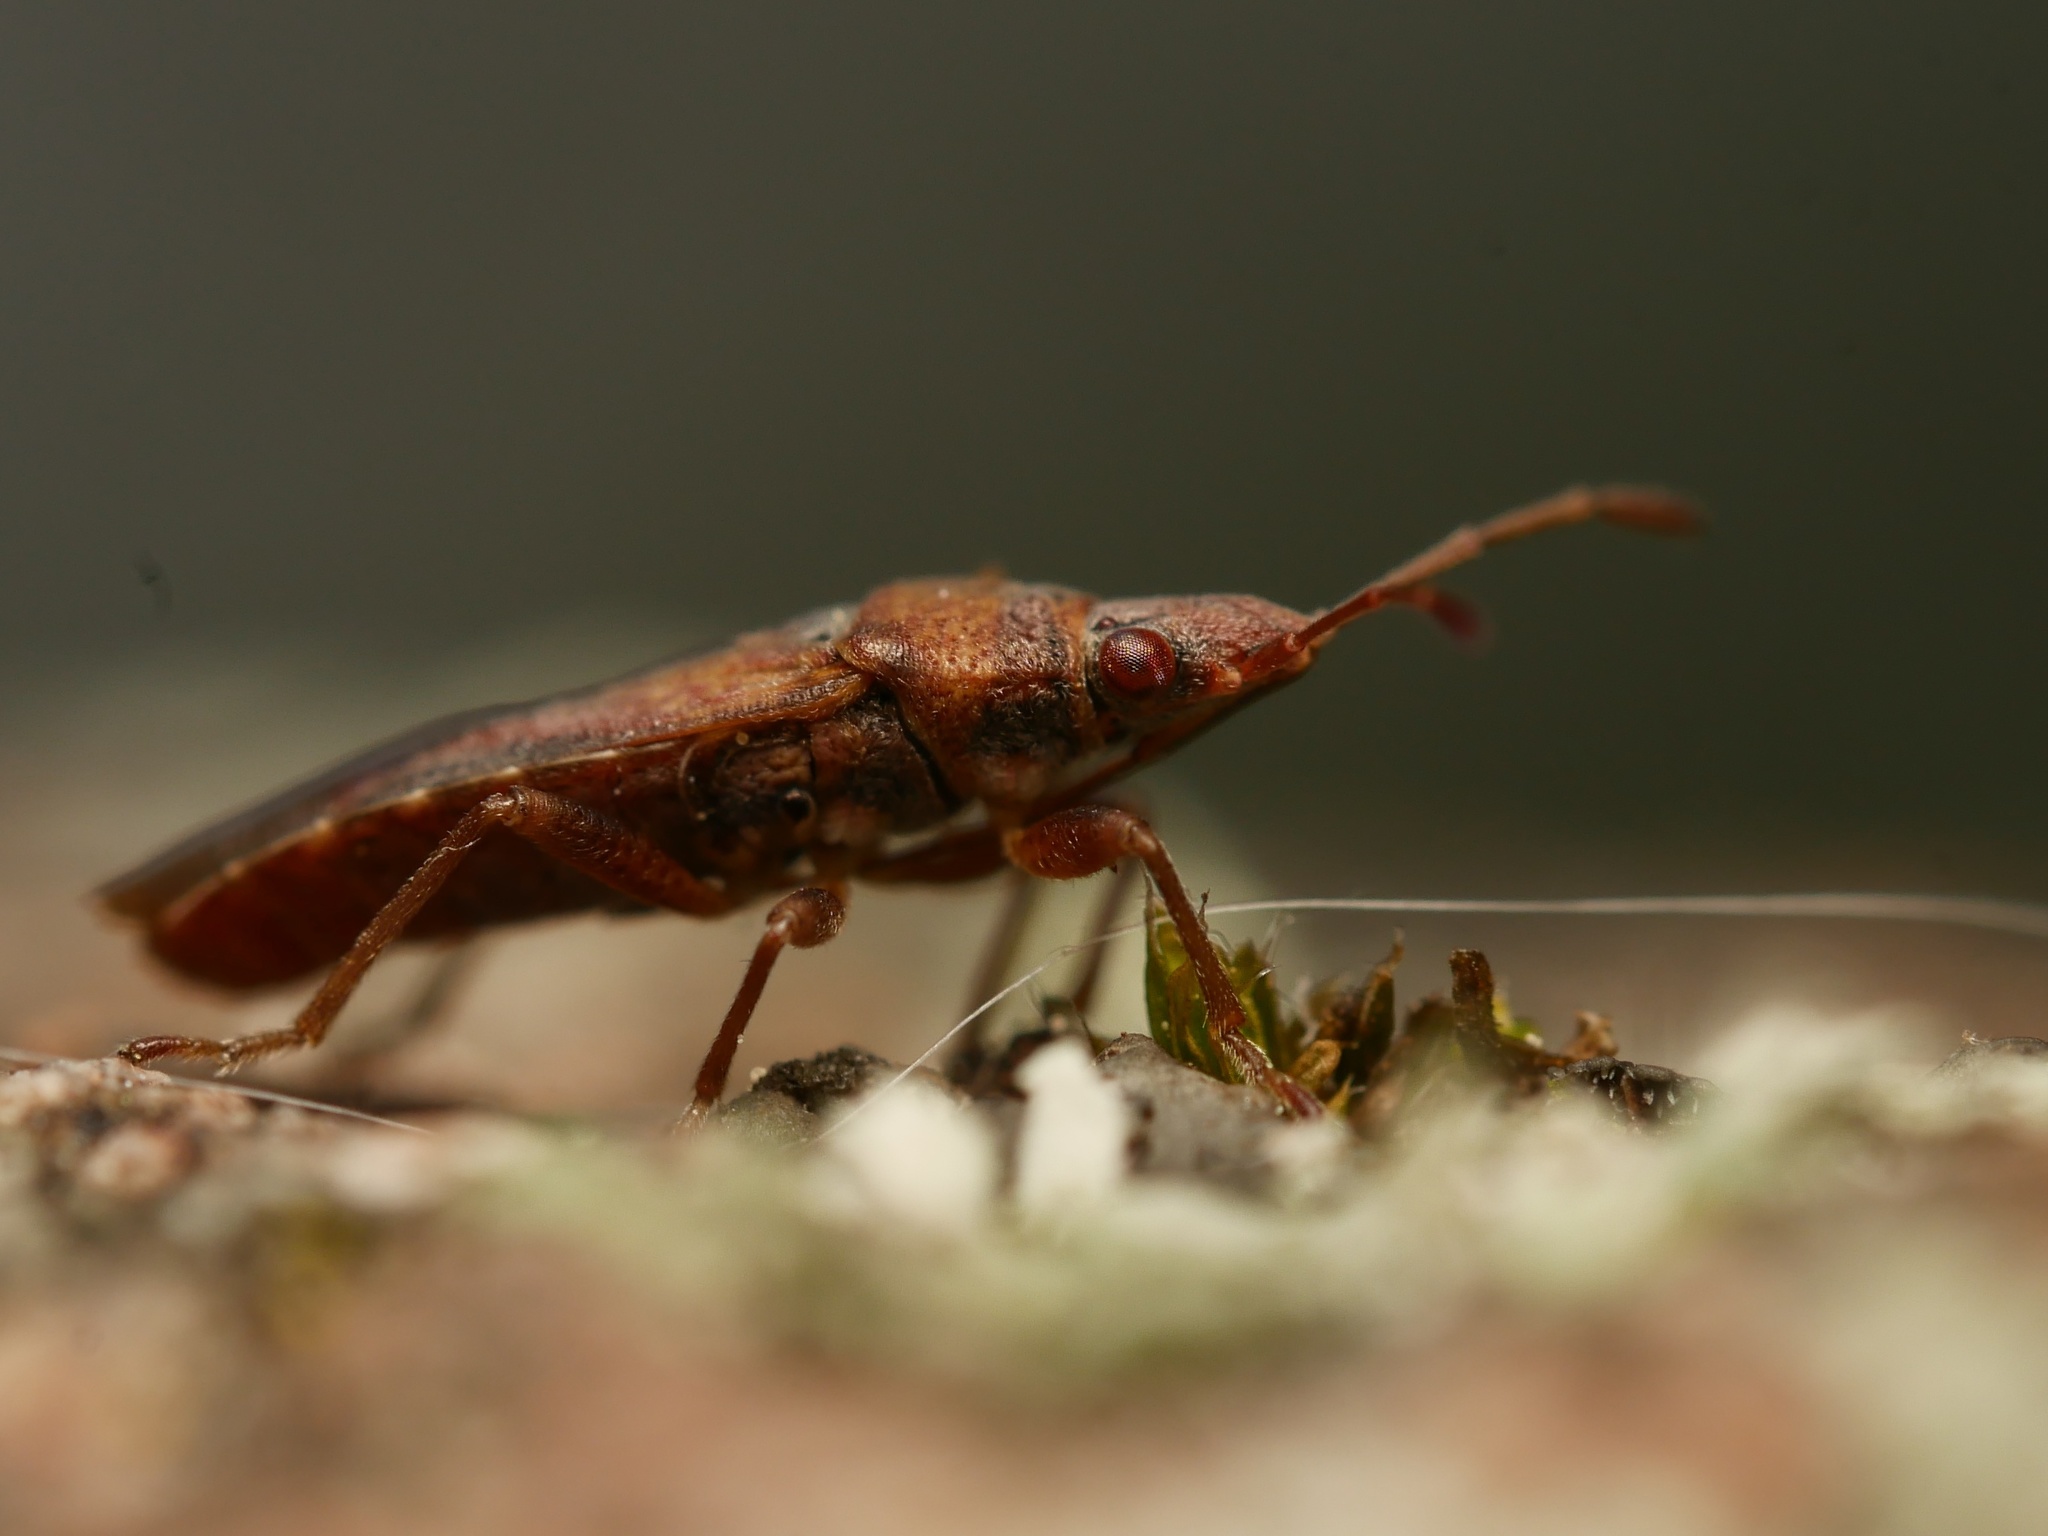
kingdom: Animalia
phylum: Arthropoda
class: Insecta
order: Hemiptera
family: Lygaeidae
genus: Orsillus
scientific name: Orsillus depressus
